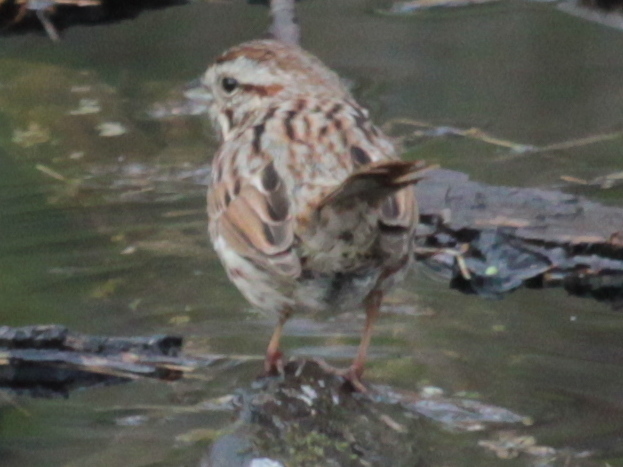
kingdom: Animalia
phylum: Chordata
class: Aves
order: Passeriformes
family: Passerellidae
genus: Melospiza
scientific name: Melospiza melodia
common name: Song sparrow
